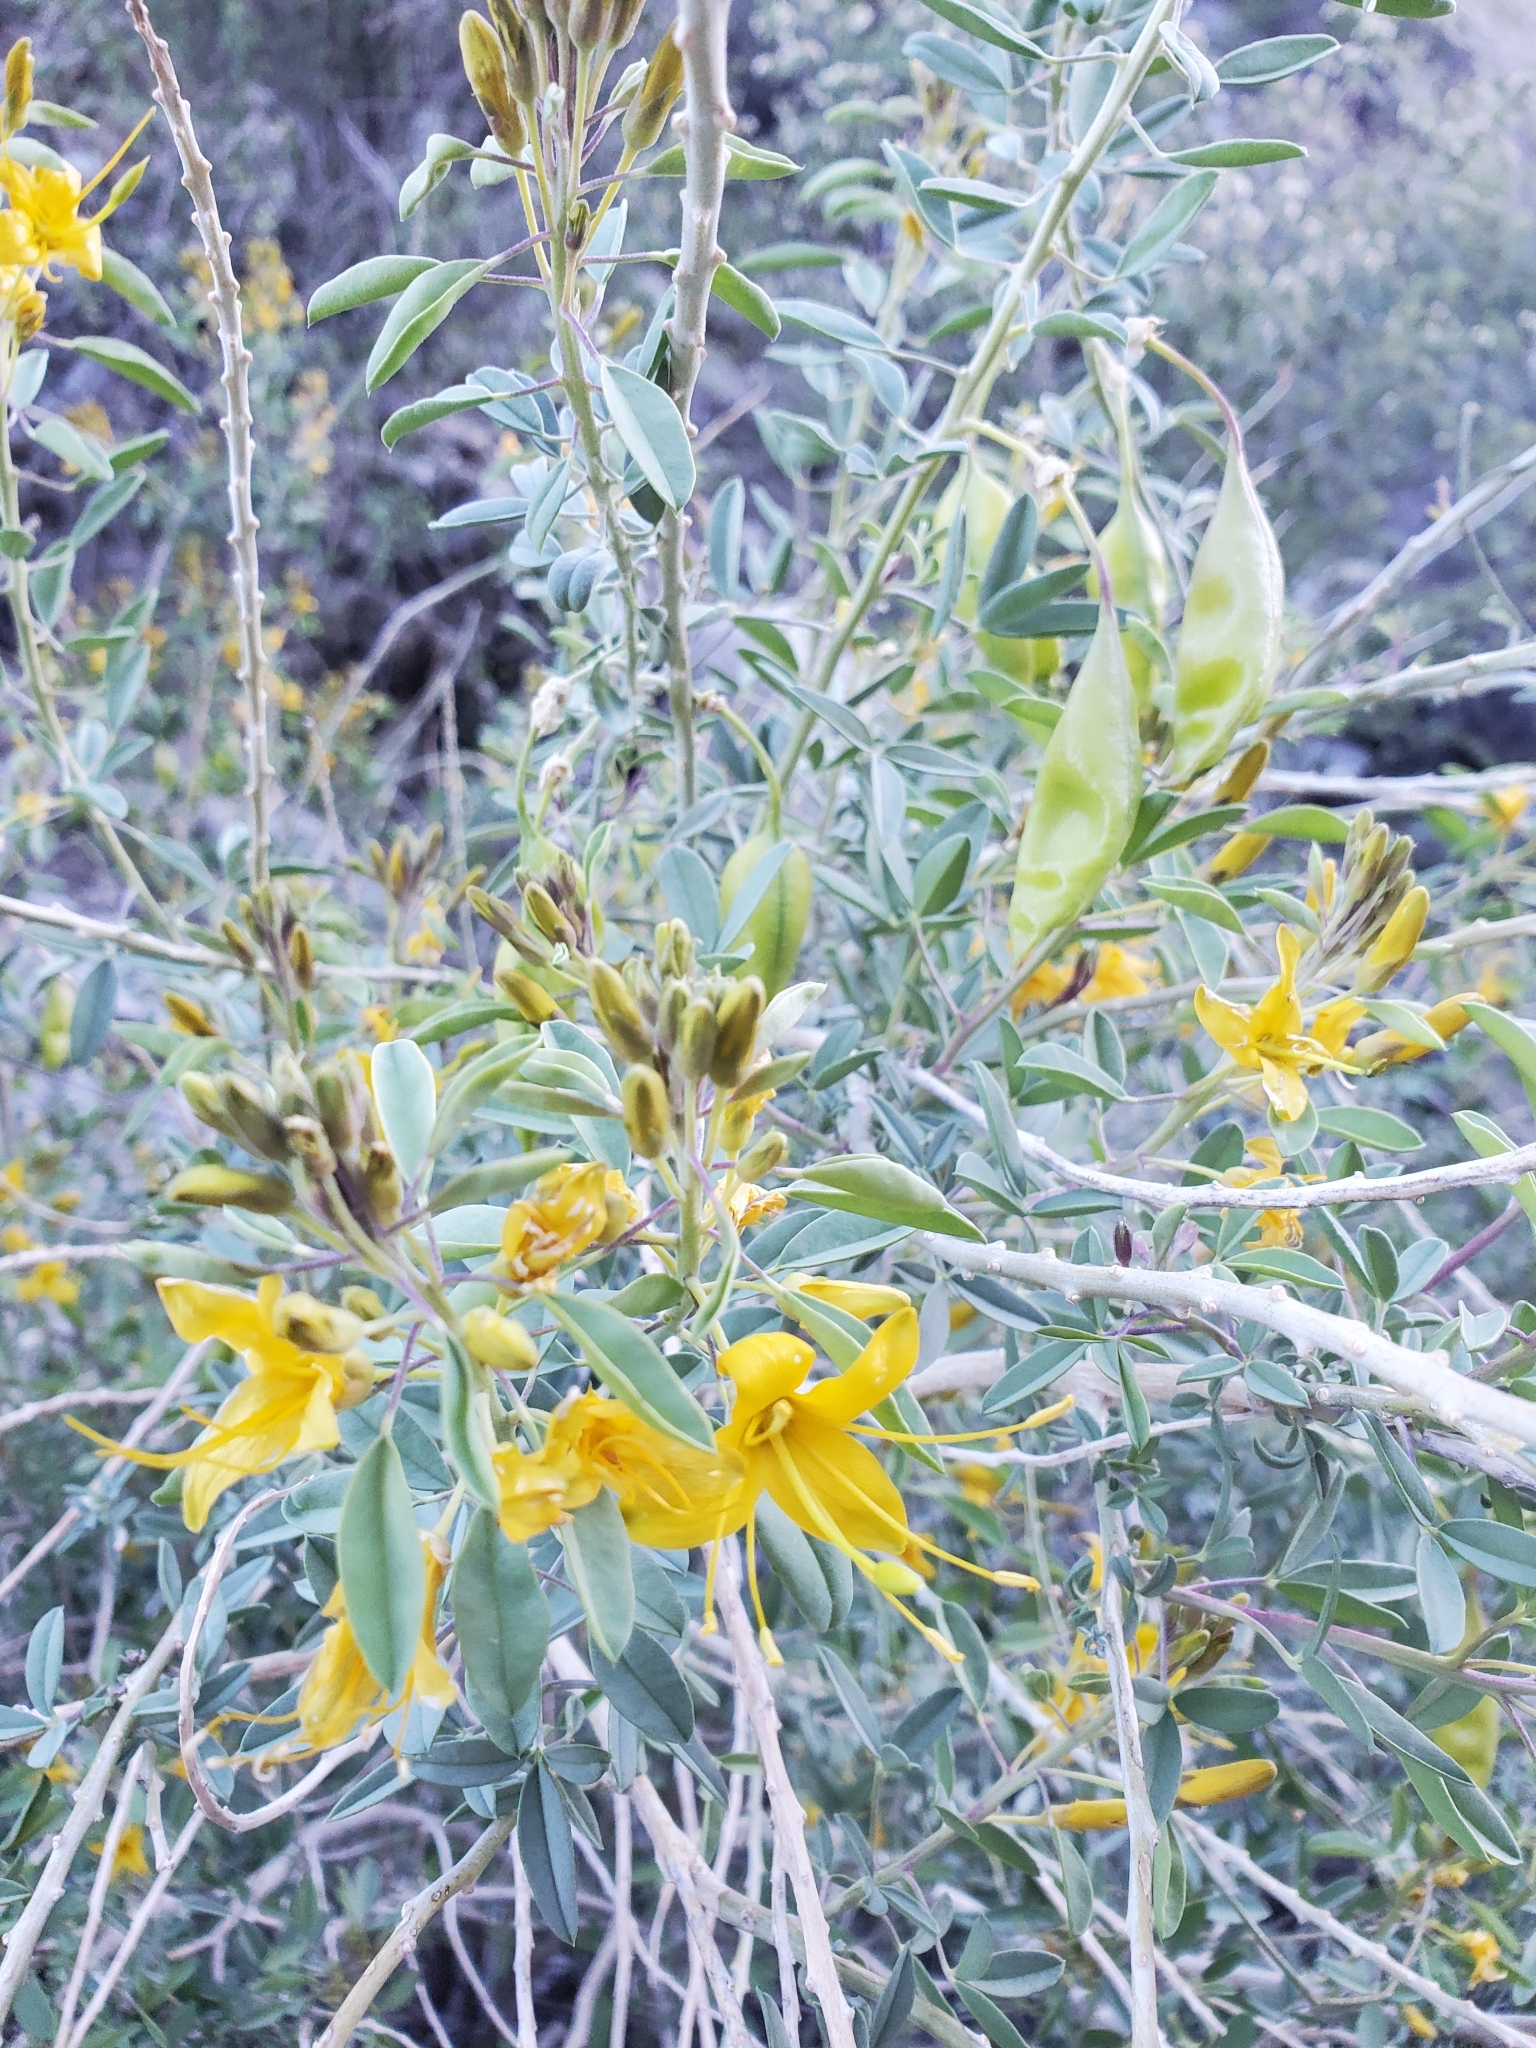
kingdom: Plantae
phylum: Tracheophyta
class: Magnoliopsida
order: Brassicales
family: Cleomaceae
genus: Cleomella
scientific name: Cleomella arborea
